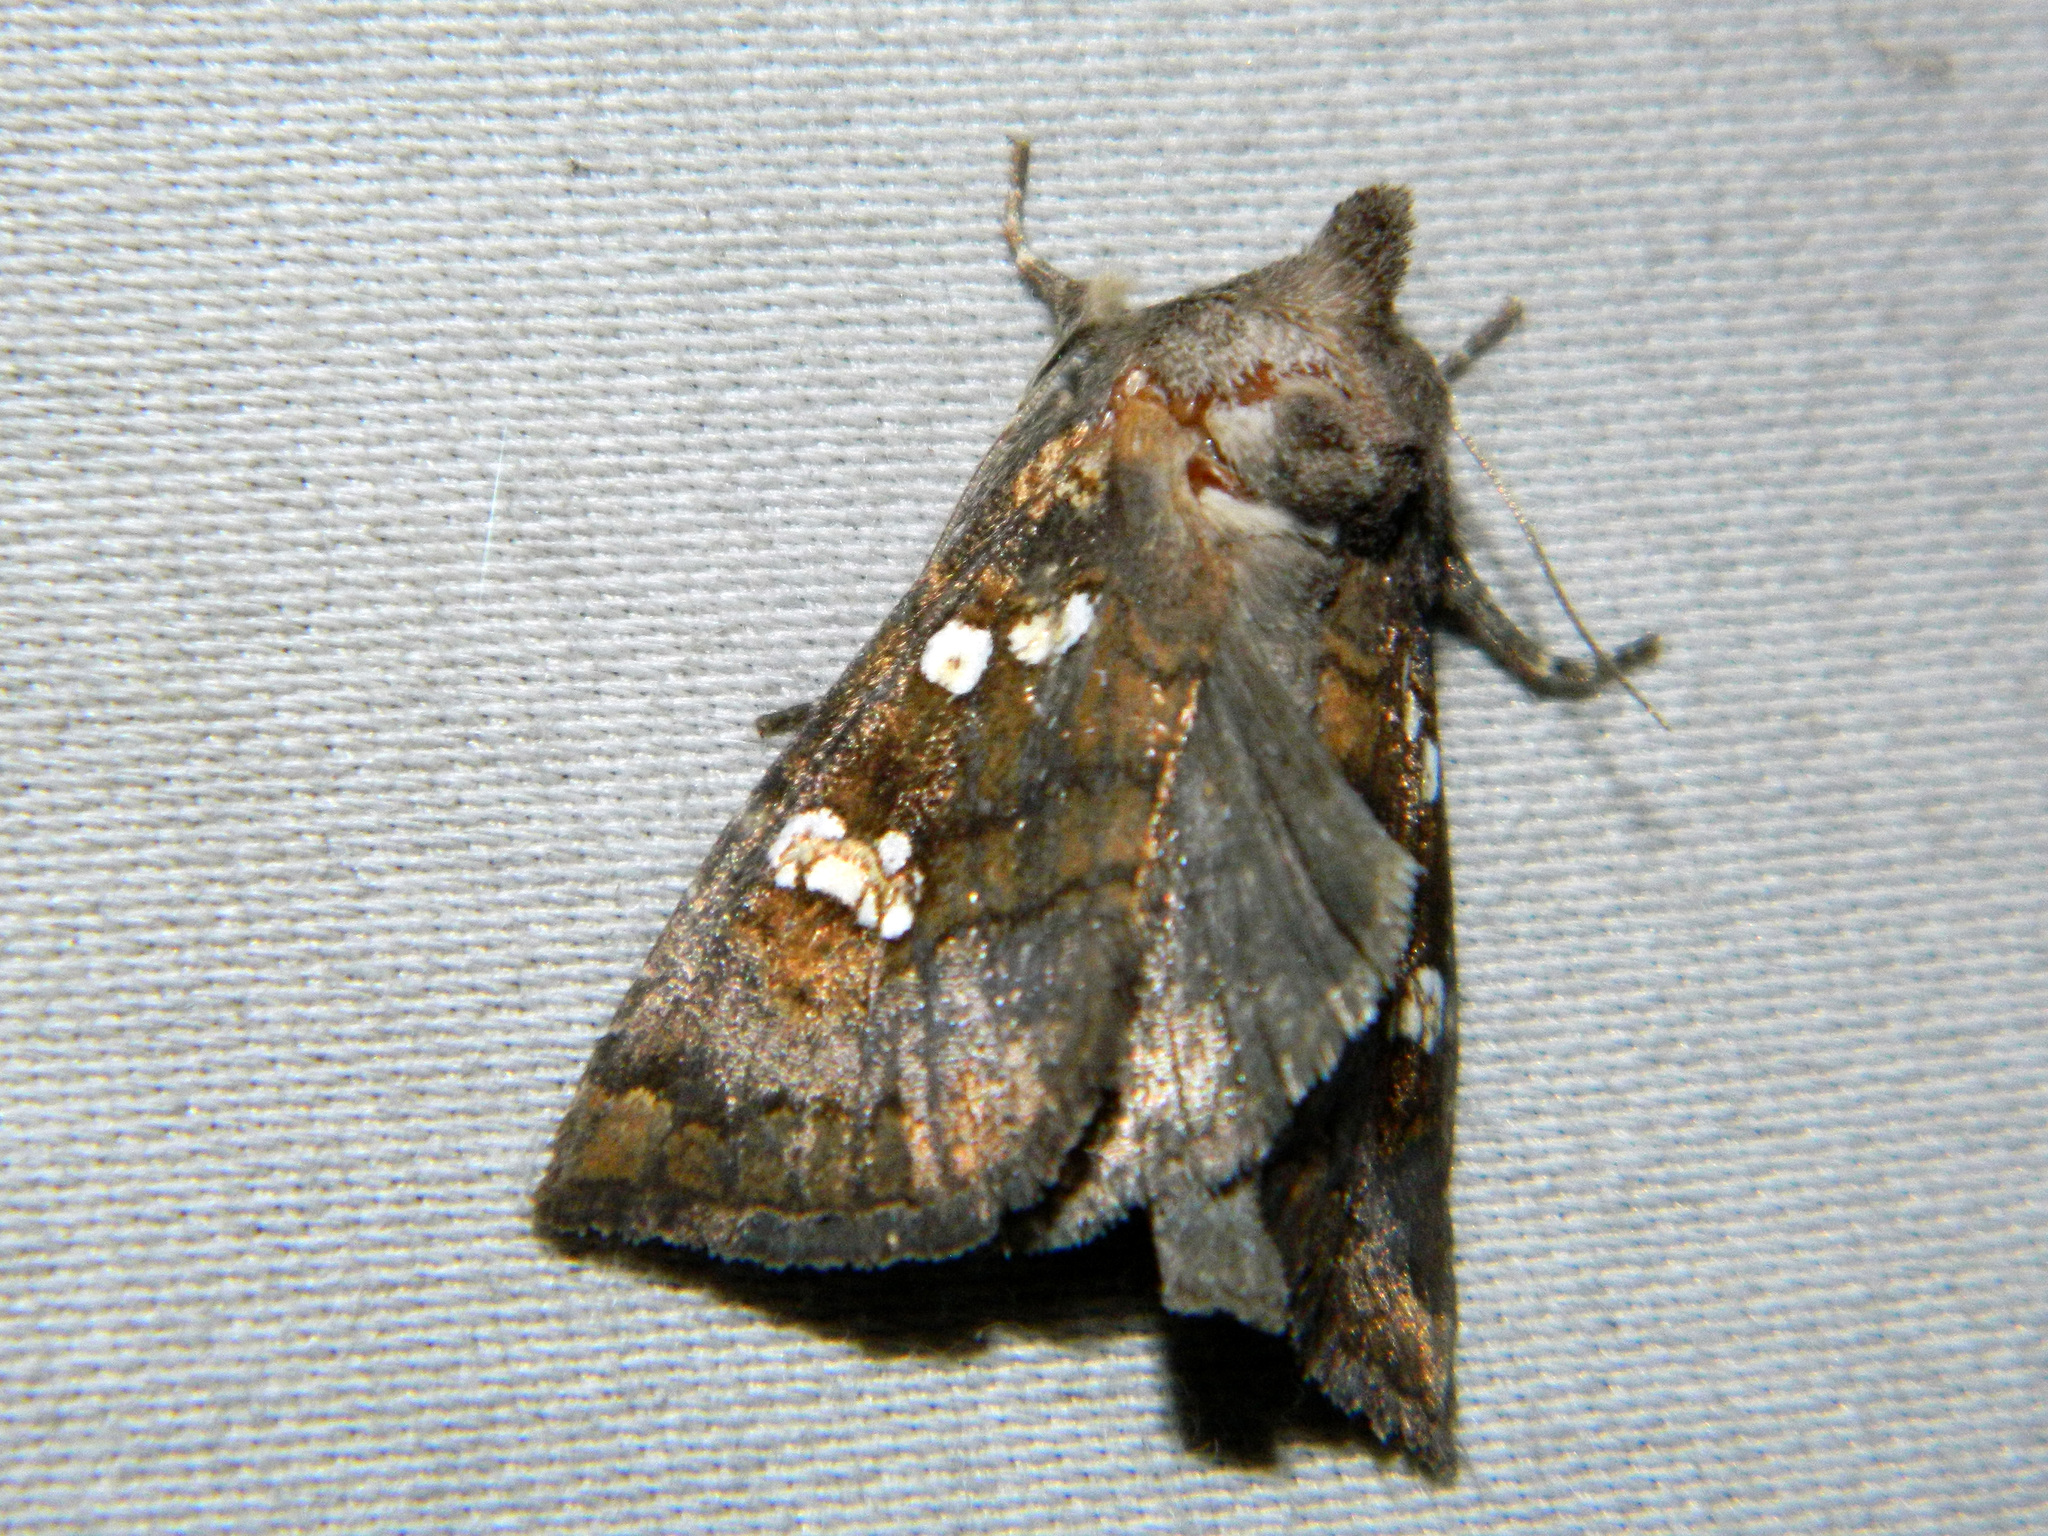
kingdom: Animalia
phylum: Arthropoda
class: Insecta
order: Lepidoptera
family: Noctuidae
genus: Papaipema
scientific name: Papaipema unimoda
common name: Meadow rue borer moth
